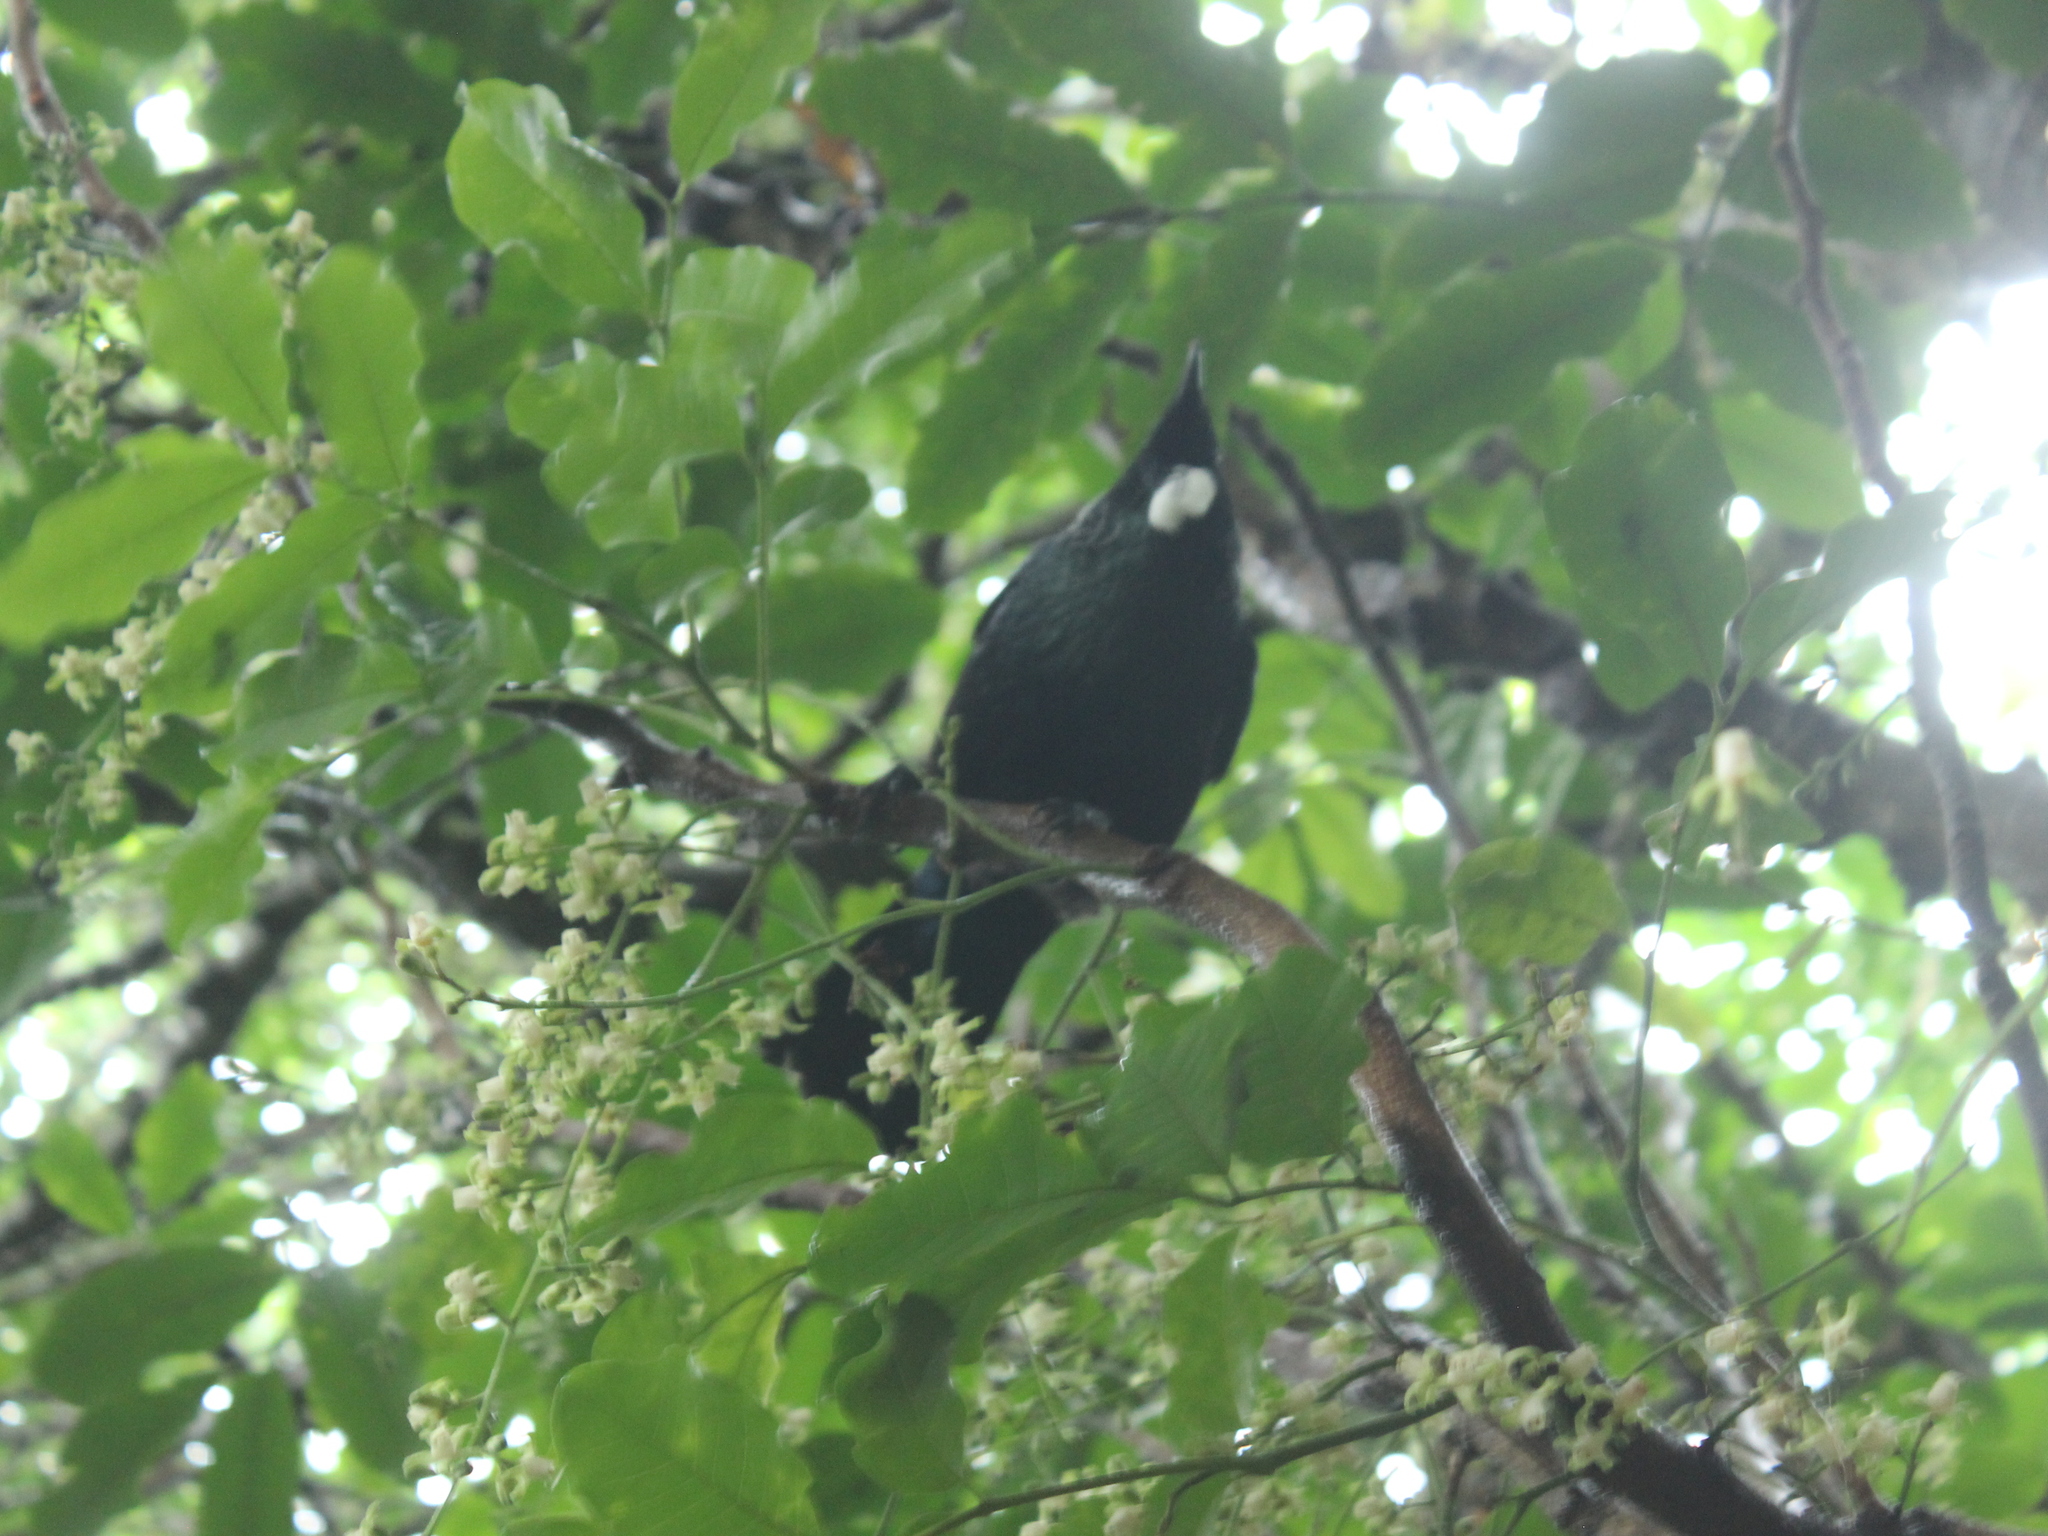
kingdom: Animalia
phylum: Chordata
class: Aves
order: Passeriformes
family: Meliphagidae
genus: Prosthemadera
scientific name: Prosthemadera novaeseelandiae
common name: Tui
